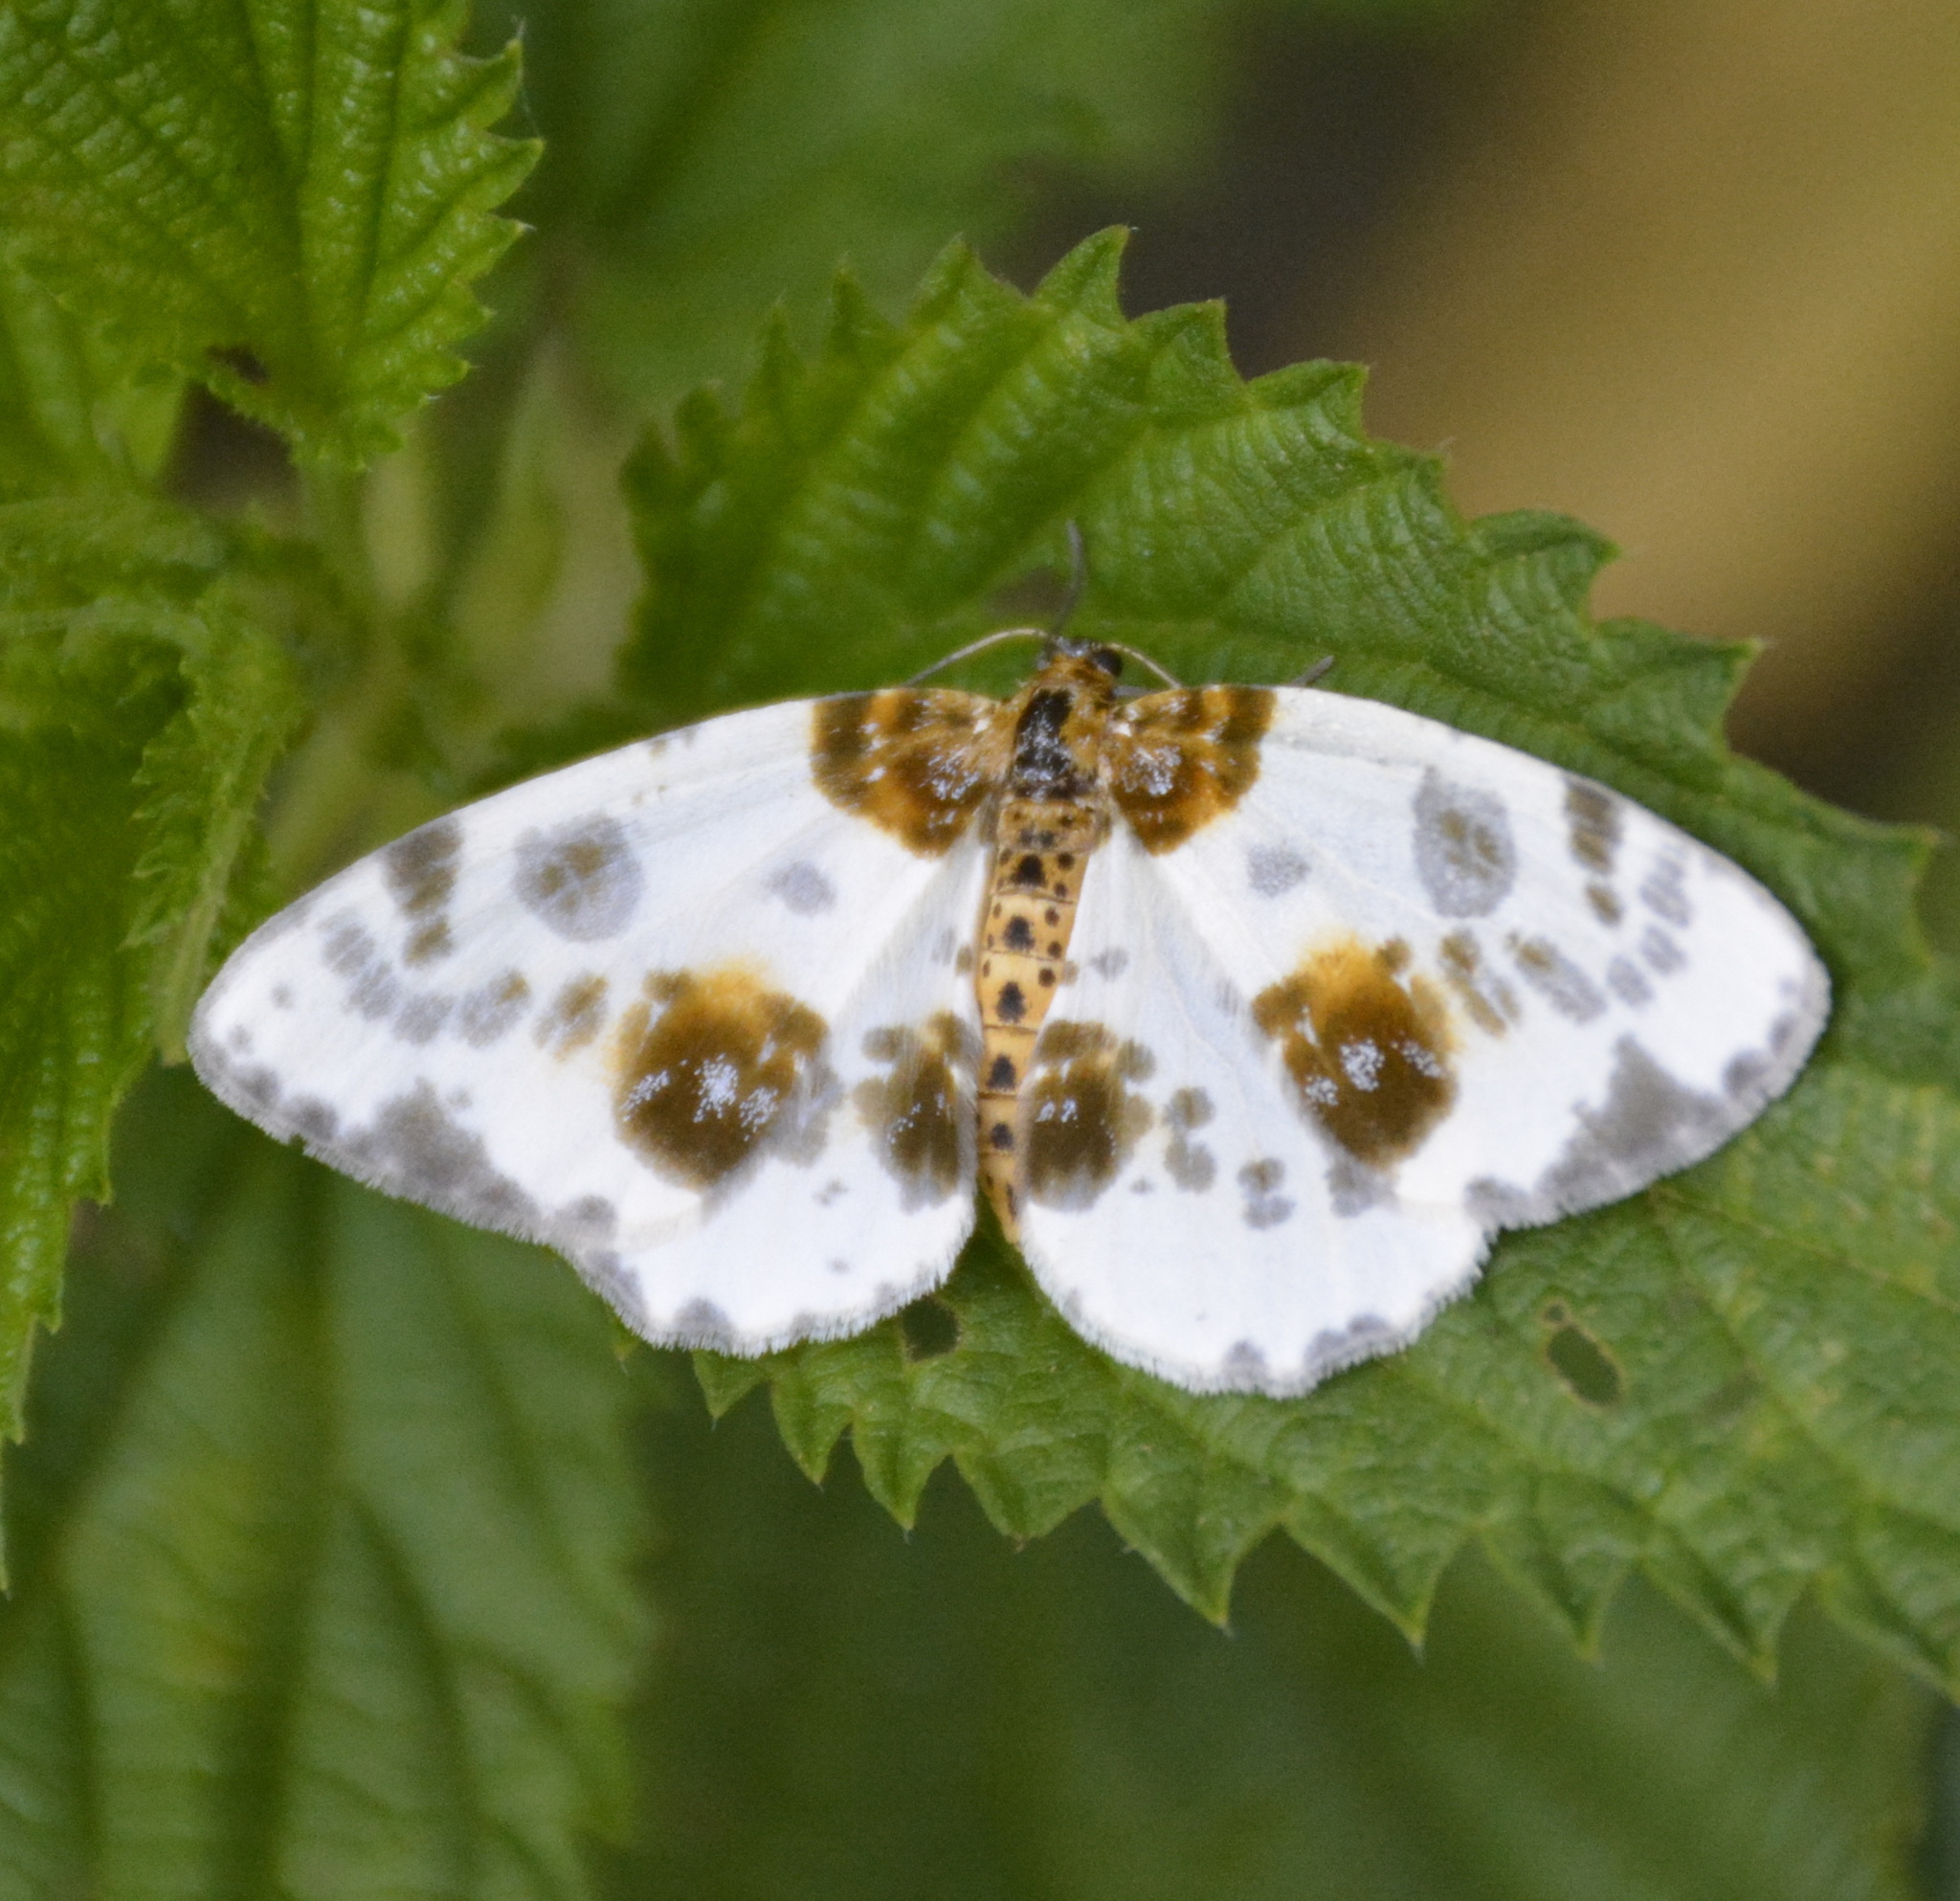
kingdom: Animalia
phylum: Arthropoda
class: Insecta
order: Lepidoptera
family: Geometridae
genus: Abraxas
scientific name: Abraxas sylvata
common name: Clouded magpie
